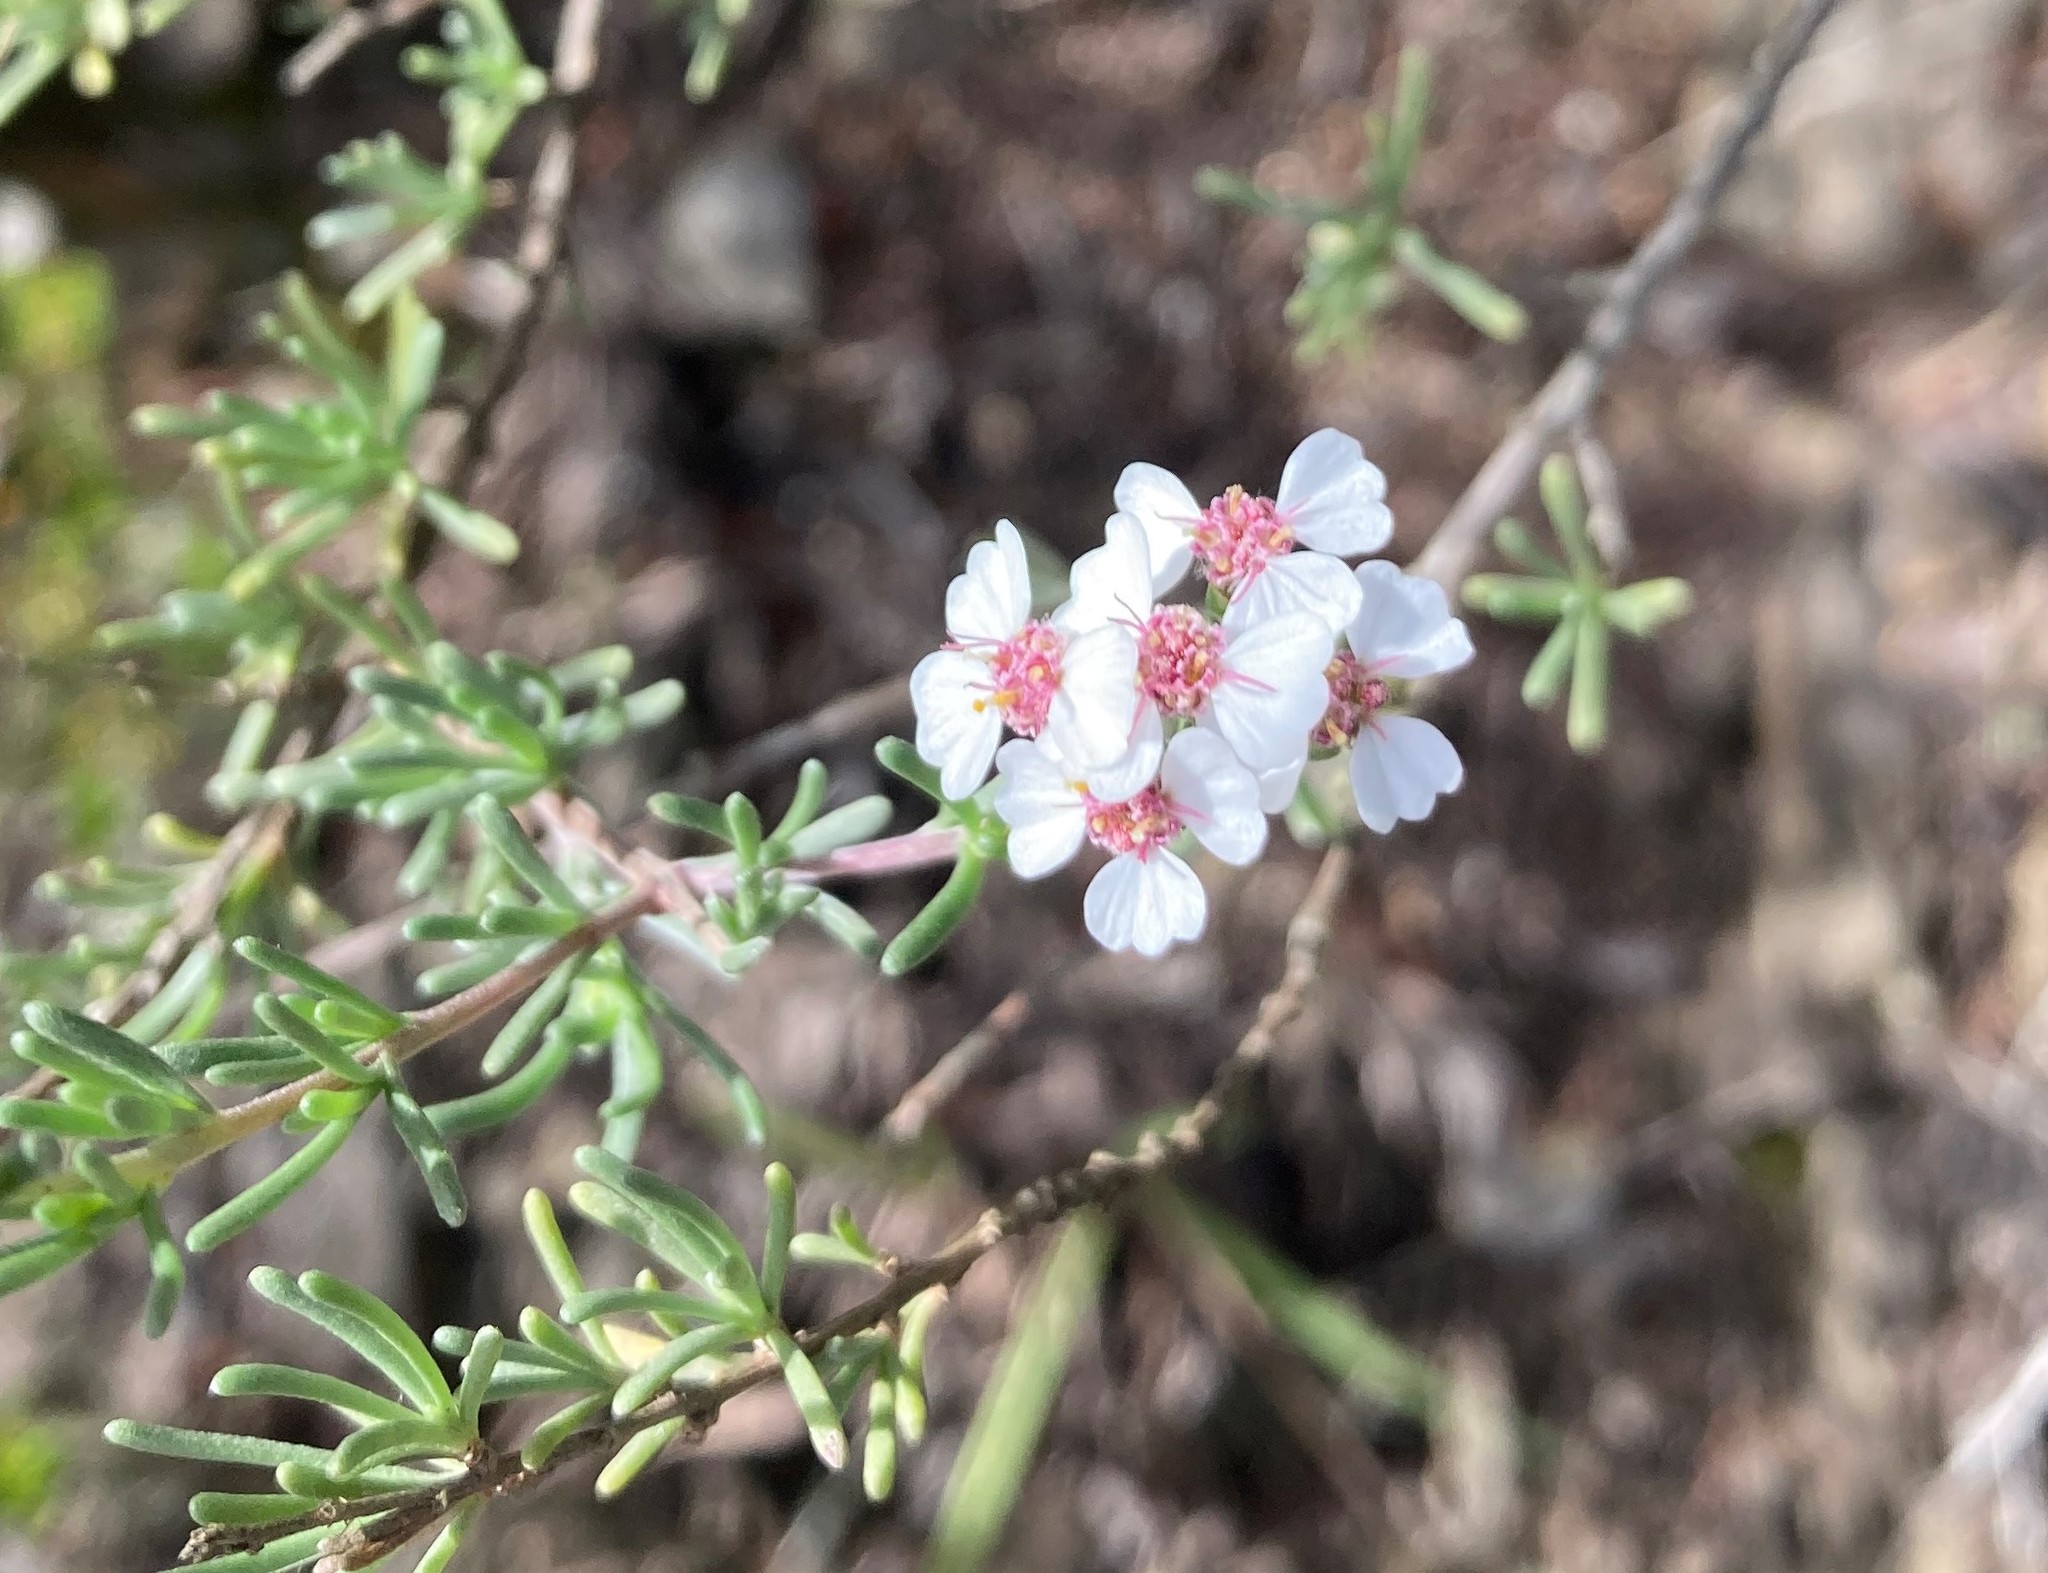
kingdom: Plantae
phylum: Tracheophyta
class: Magnoliopsida
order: Asterales
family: Asteraceae
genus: Eriocephalus
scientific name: Eriocephalus africanus
